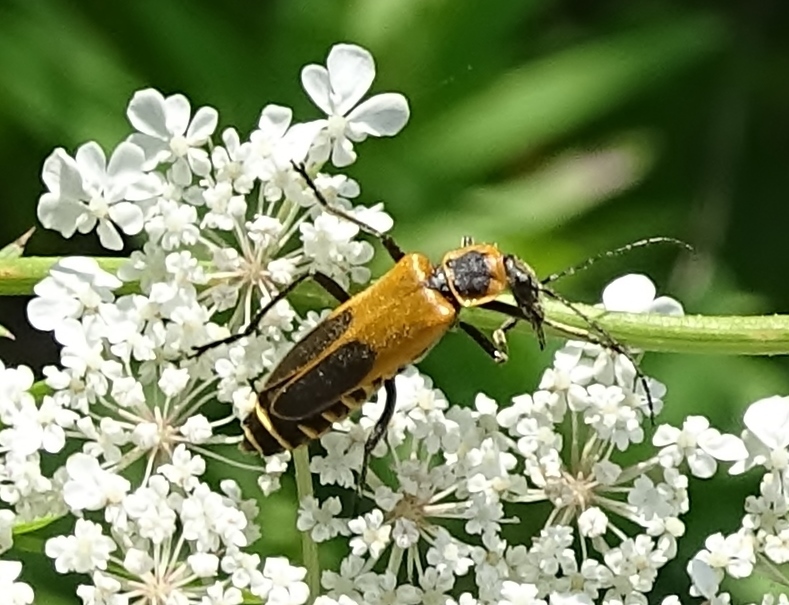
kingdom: Animalia
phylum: Arthropoda
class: Insecta
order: Coleoptera
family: Cantharidae
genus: Chauliognathus
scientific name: Chauliognathus pensylvanicus
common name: Goldenrod soldier beetle
